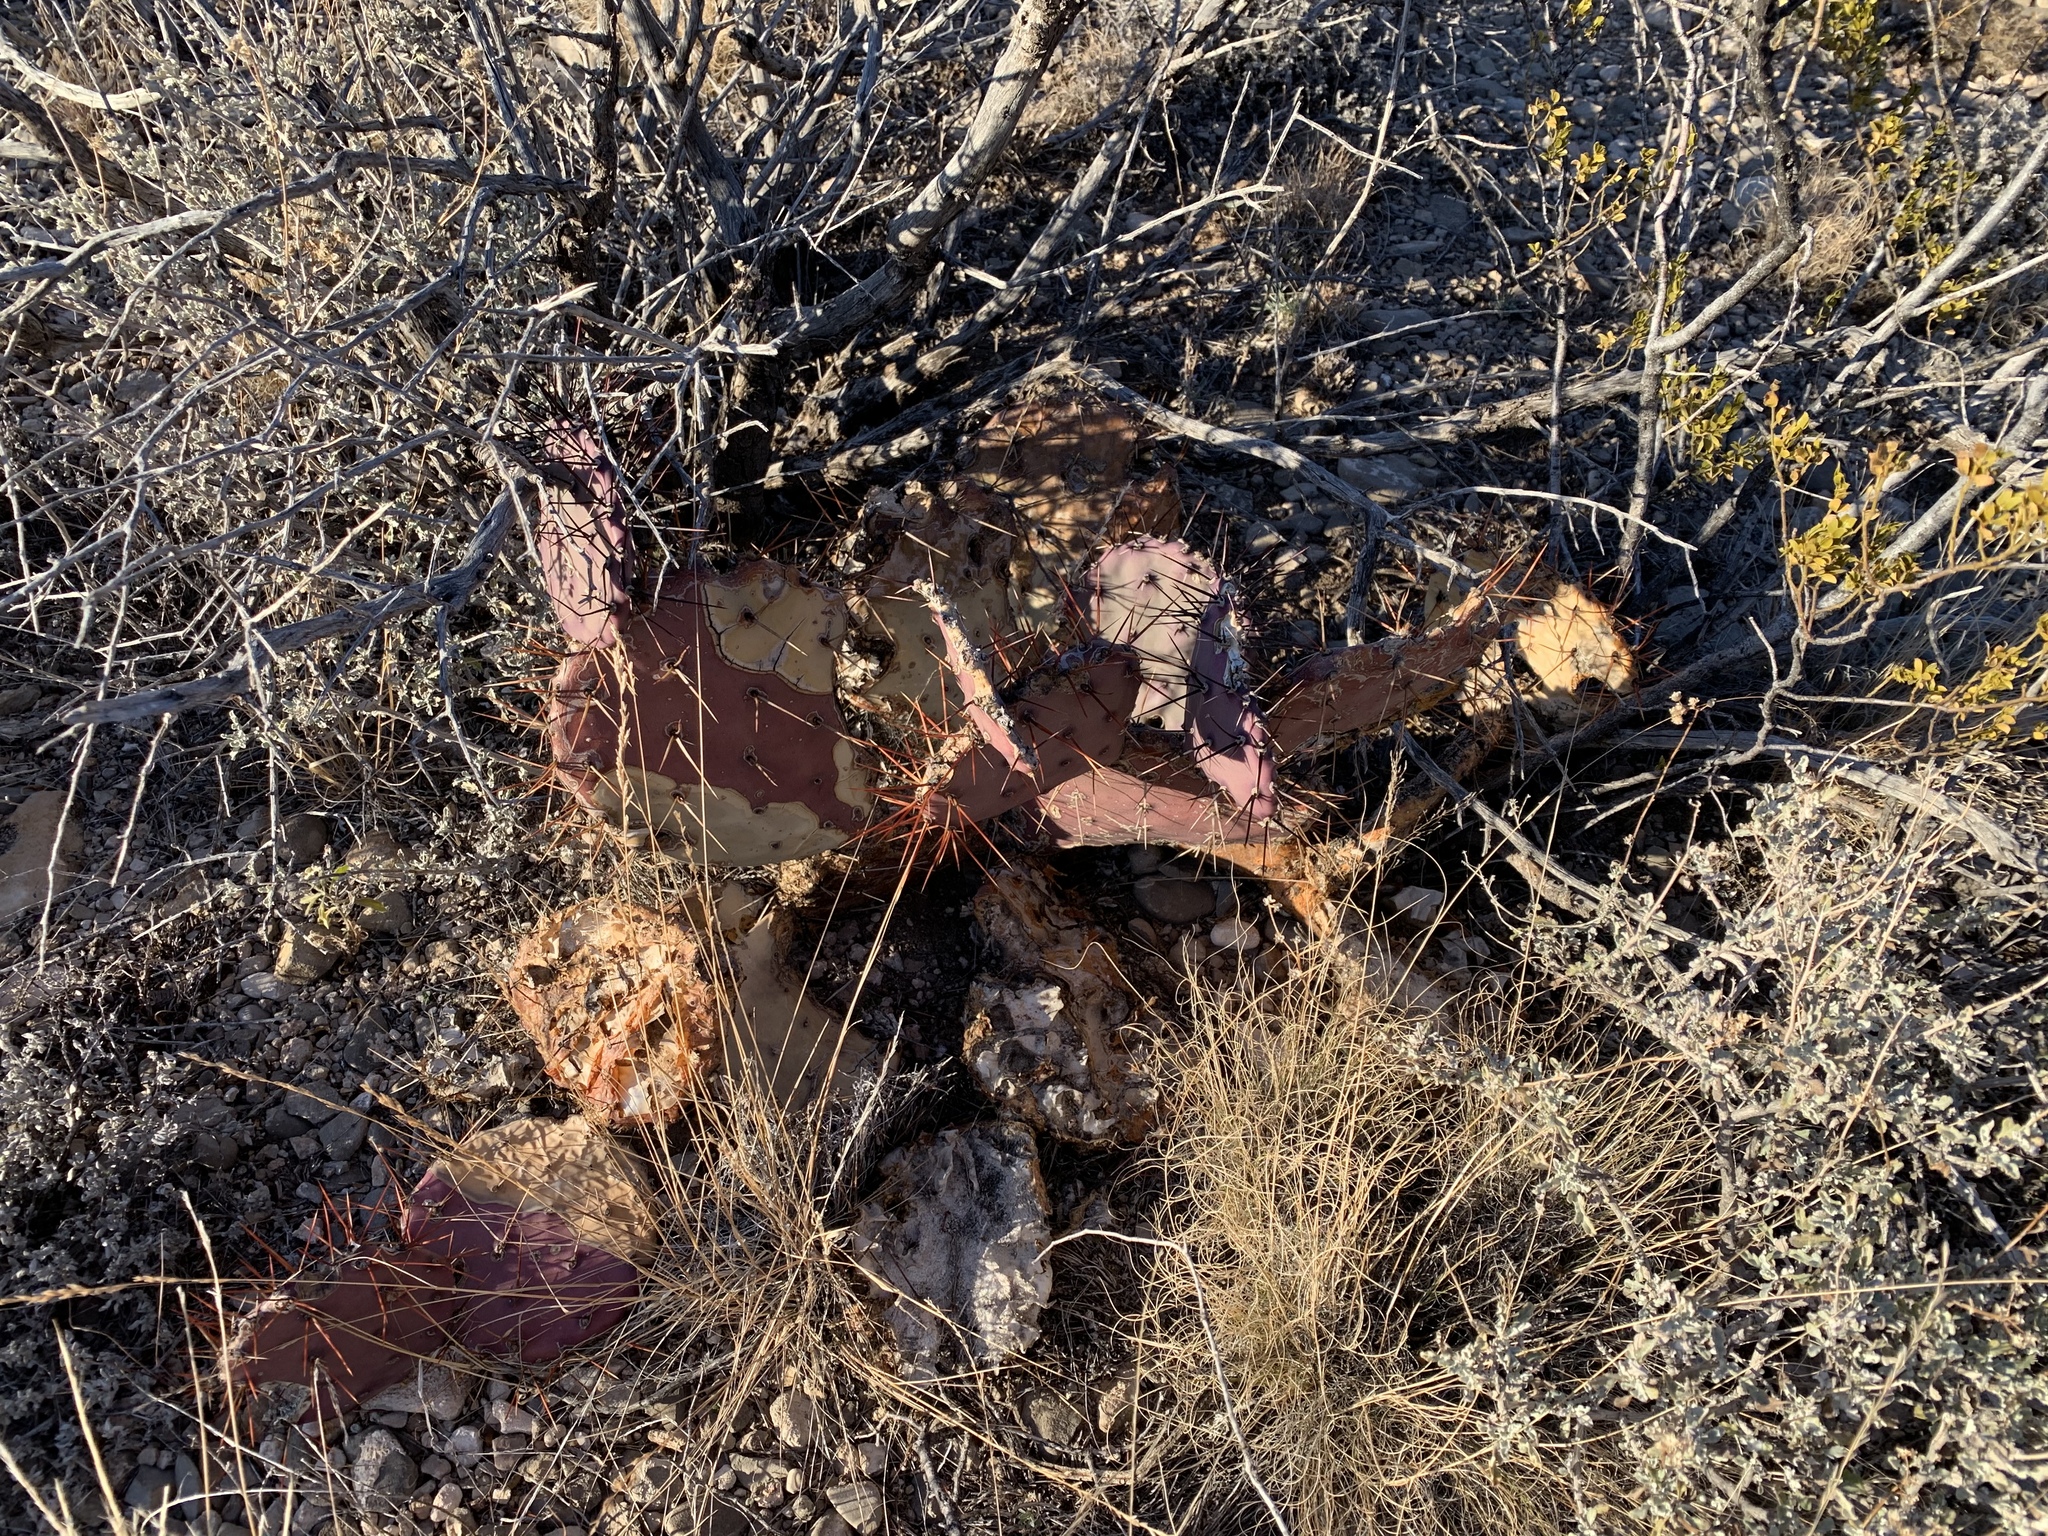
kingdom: Plantae
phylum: Tracheophyta
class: Magnoliopsida
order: Caryophyllales
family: Cactaceae
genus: Opuntia
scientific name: Opuntia macrocentra
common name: Purple prickly-pear
